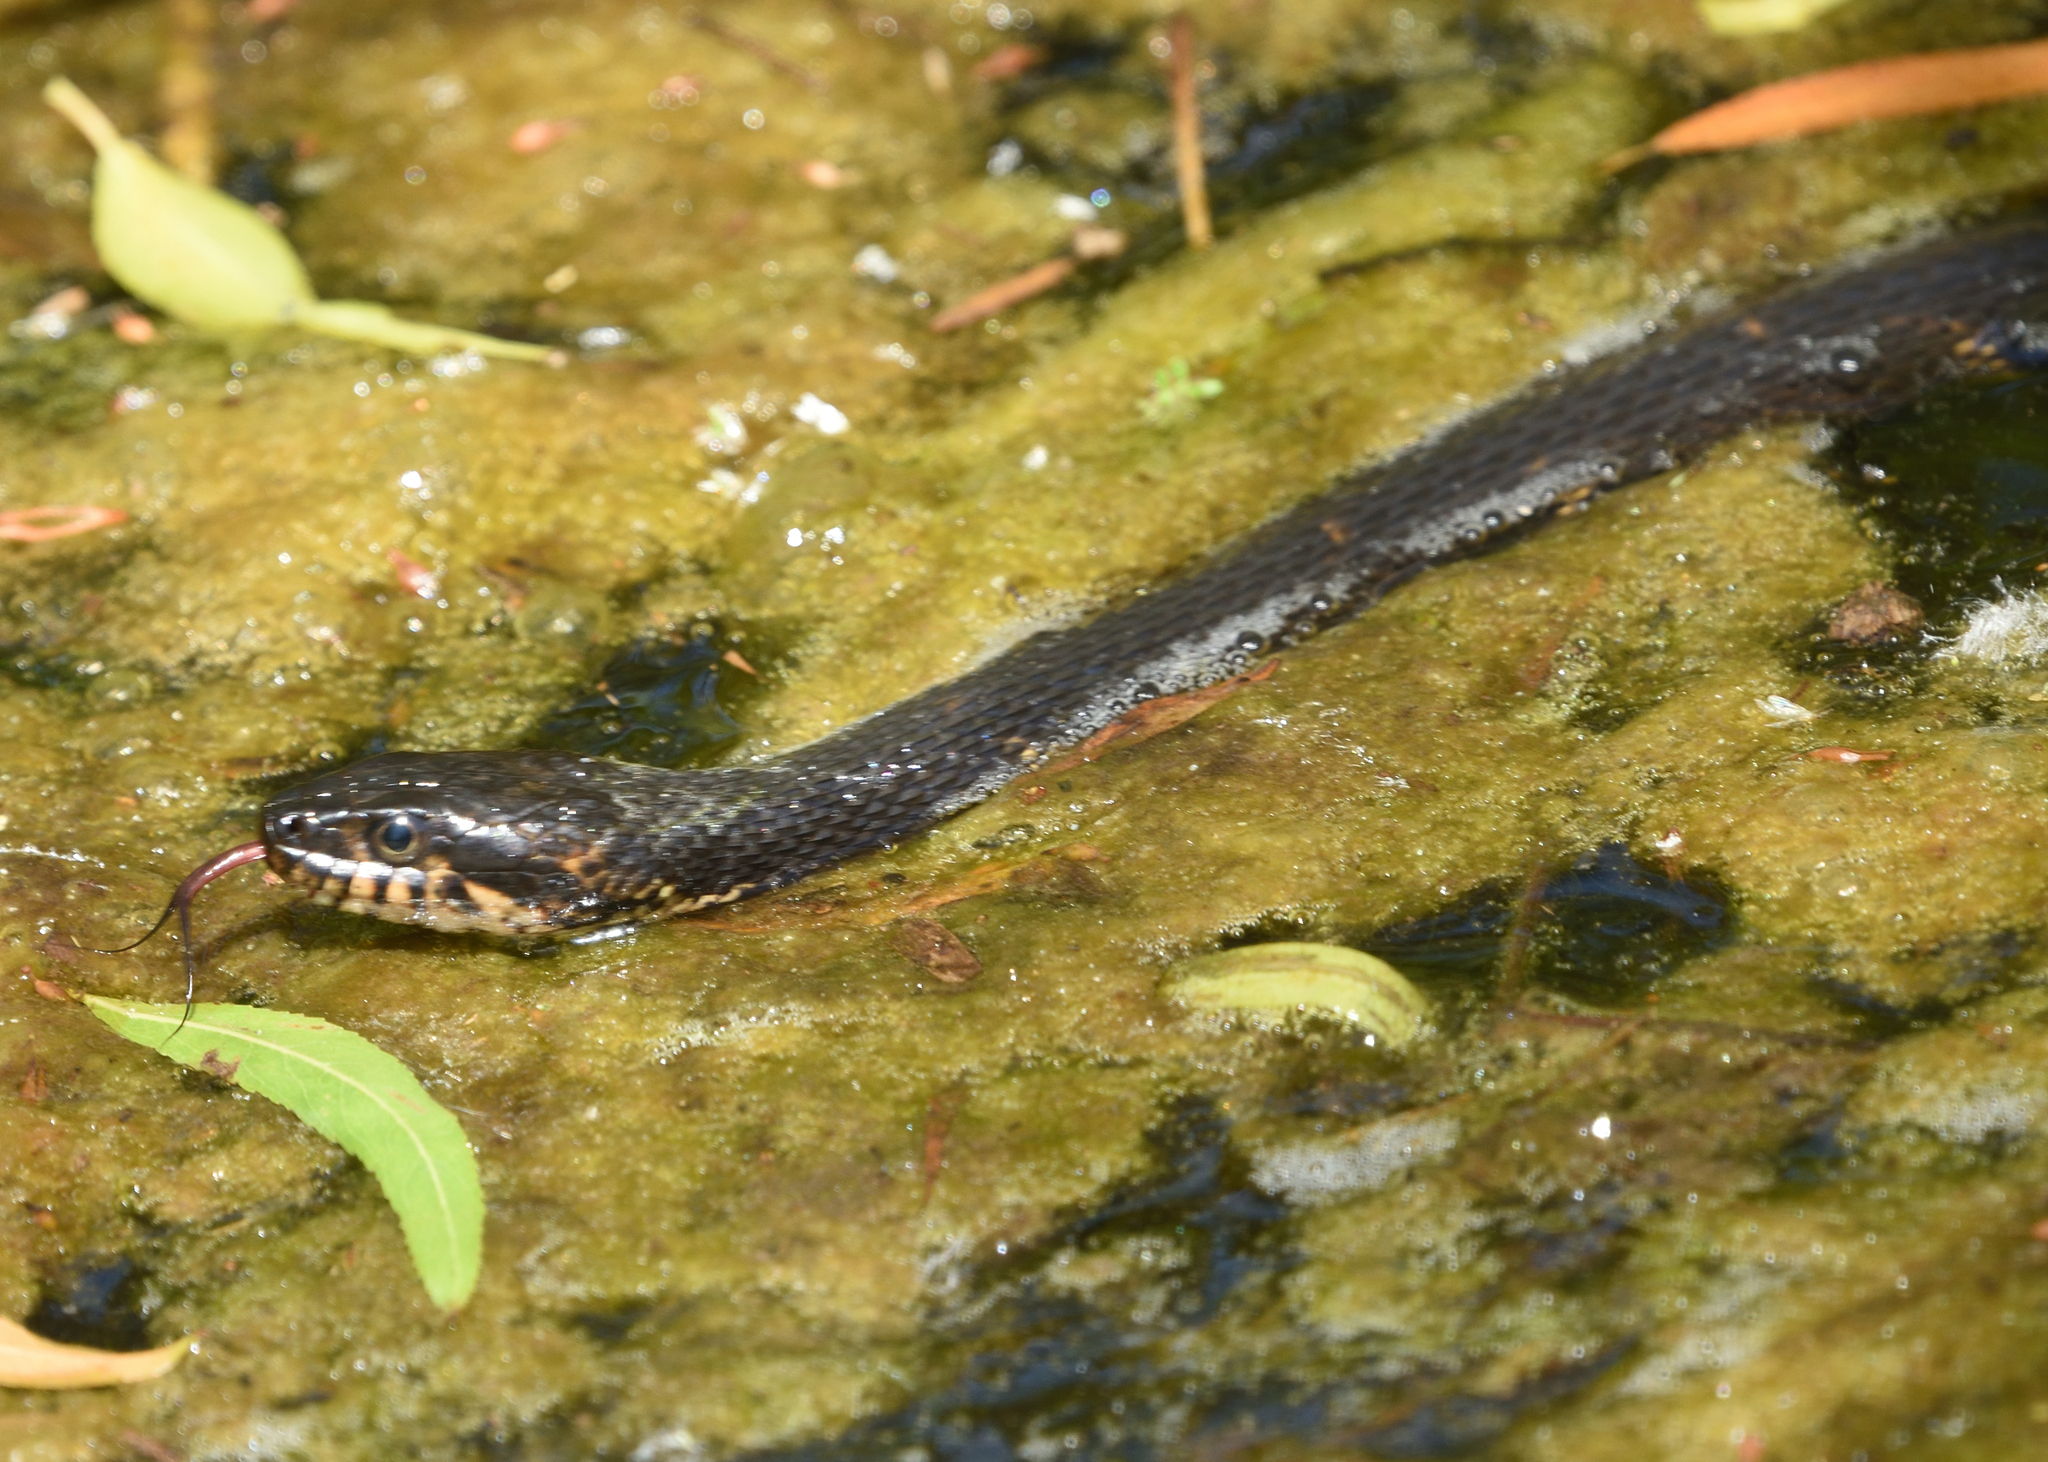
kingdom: Animalia
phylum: Chordata
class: Squamata
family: Colubridae
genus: Nerodia
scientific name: Nerodia fasciata
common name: Southern water snake
